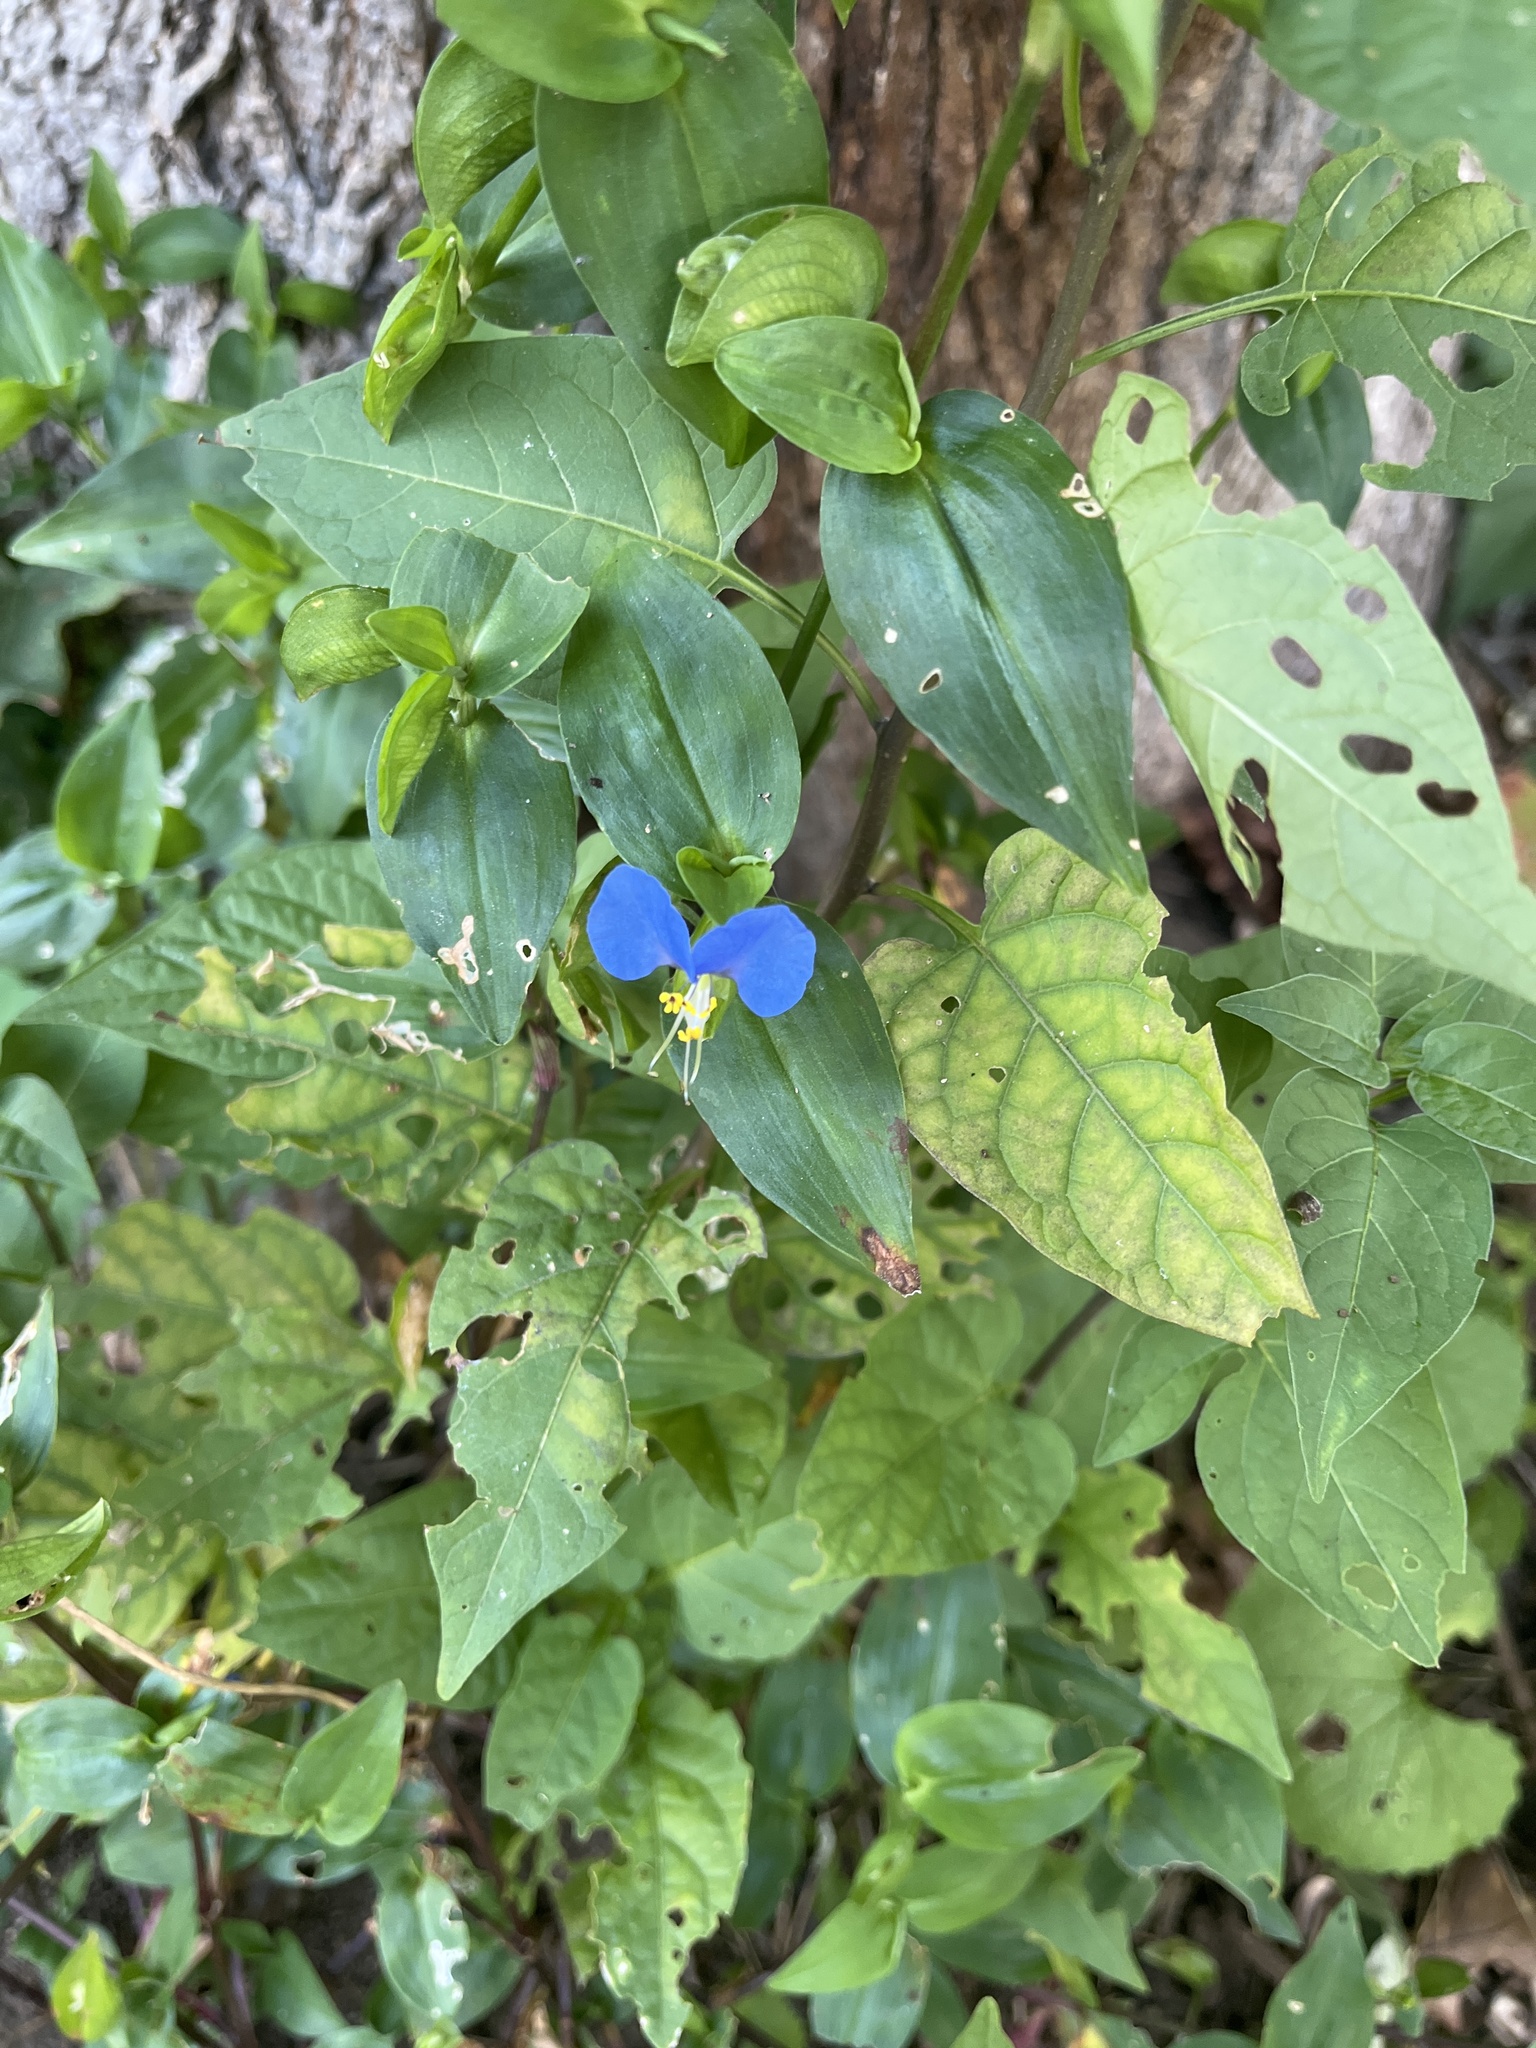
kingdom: Plantae
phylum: Tracheophyta
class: Liliopsida
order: Commelinales
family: Commelinaceae
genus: Commelina
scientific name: Commelina communis
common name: Asiatic dayflower
